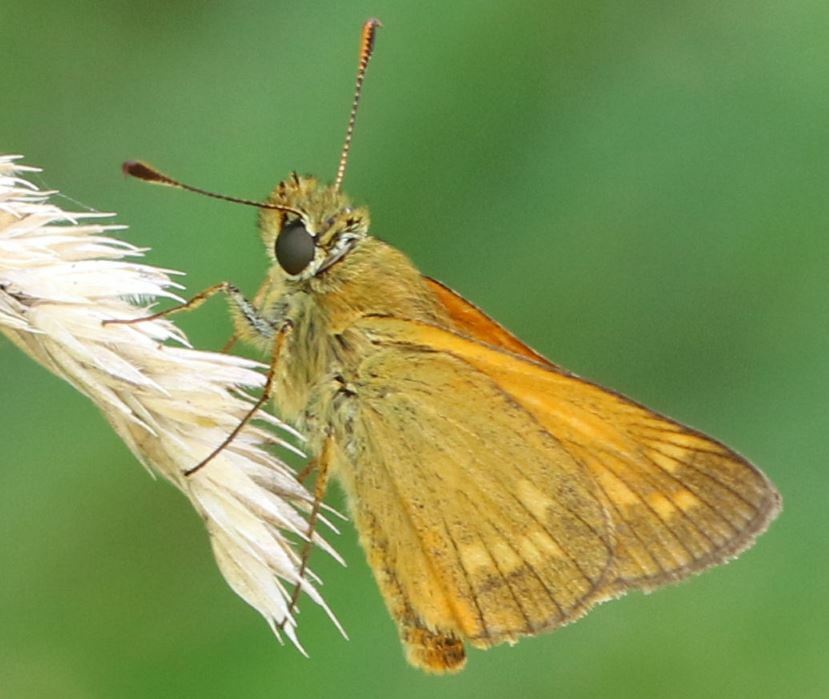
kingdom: Animalia
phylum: Arthropoda
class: Insecta
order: Lepidoptera
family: Hesperiidae
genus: Ochlodes
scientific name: Ochlodes venata
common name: Large skipper
